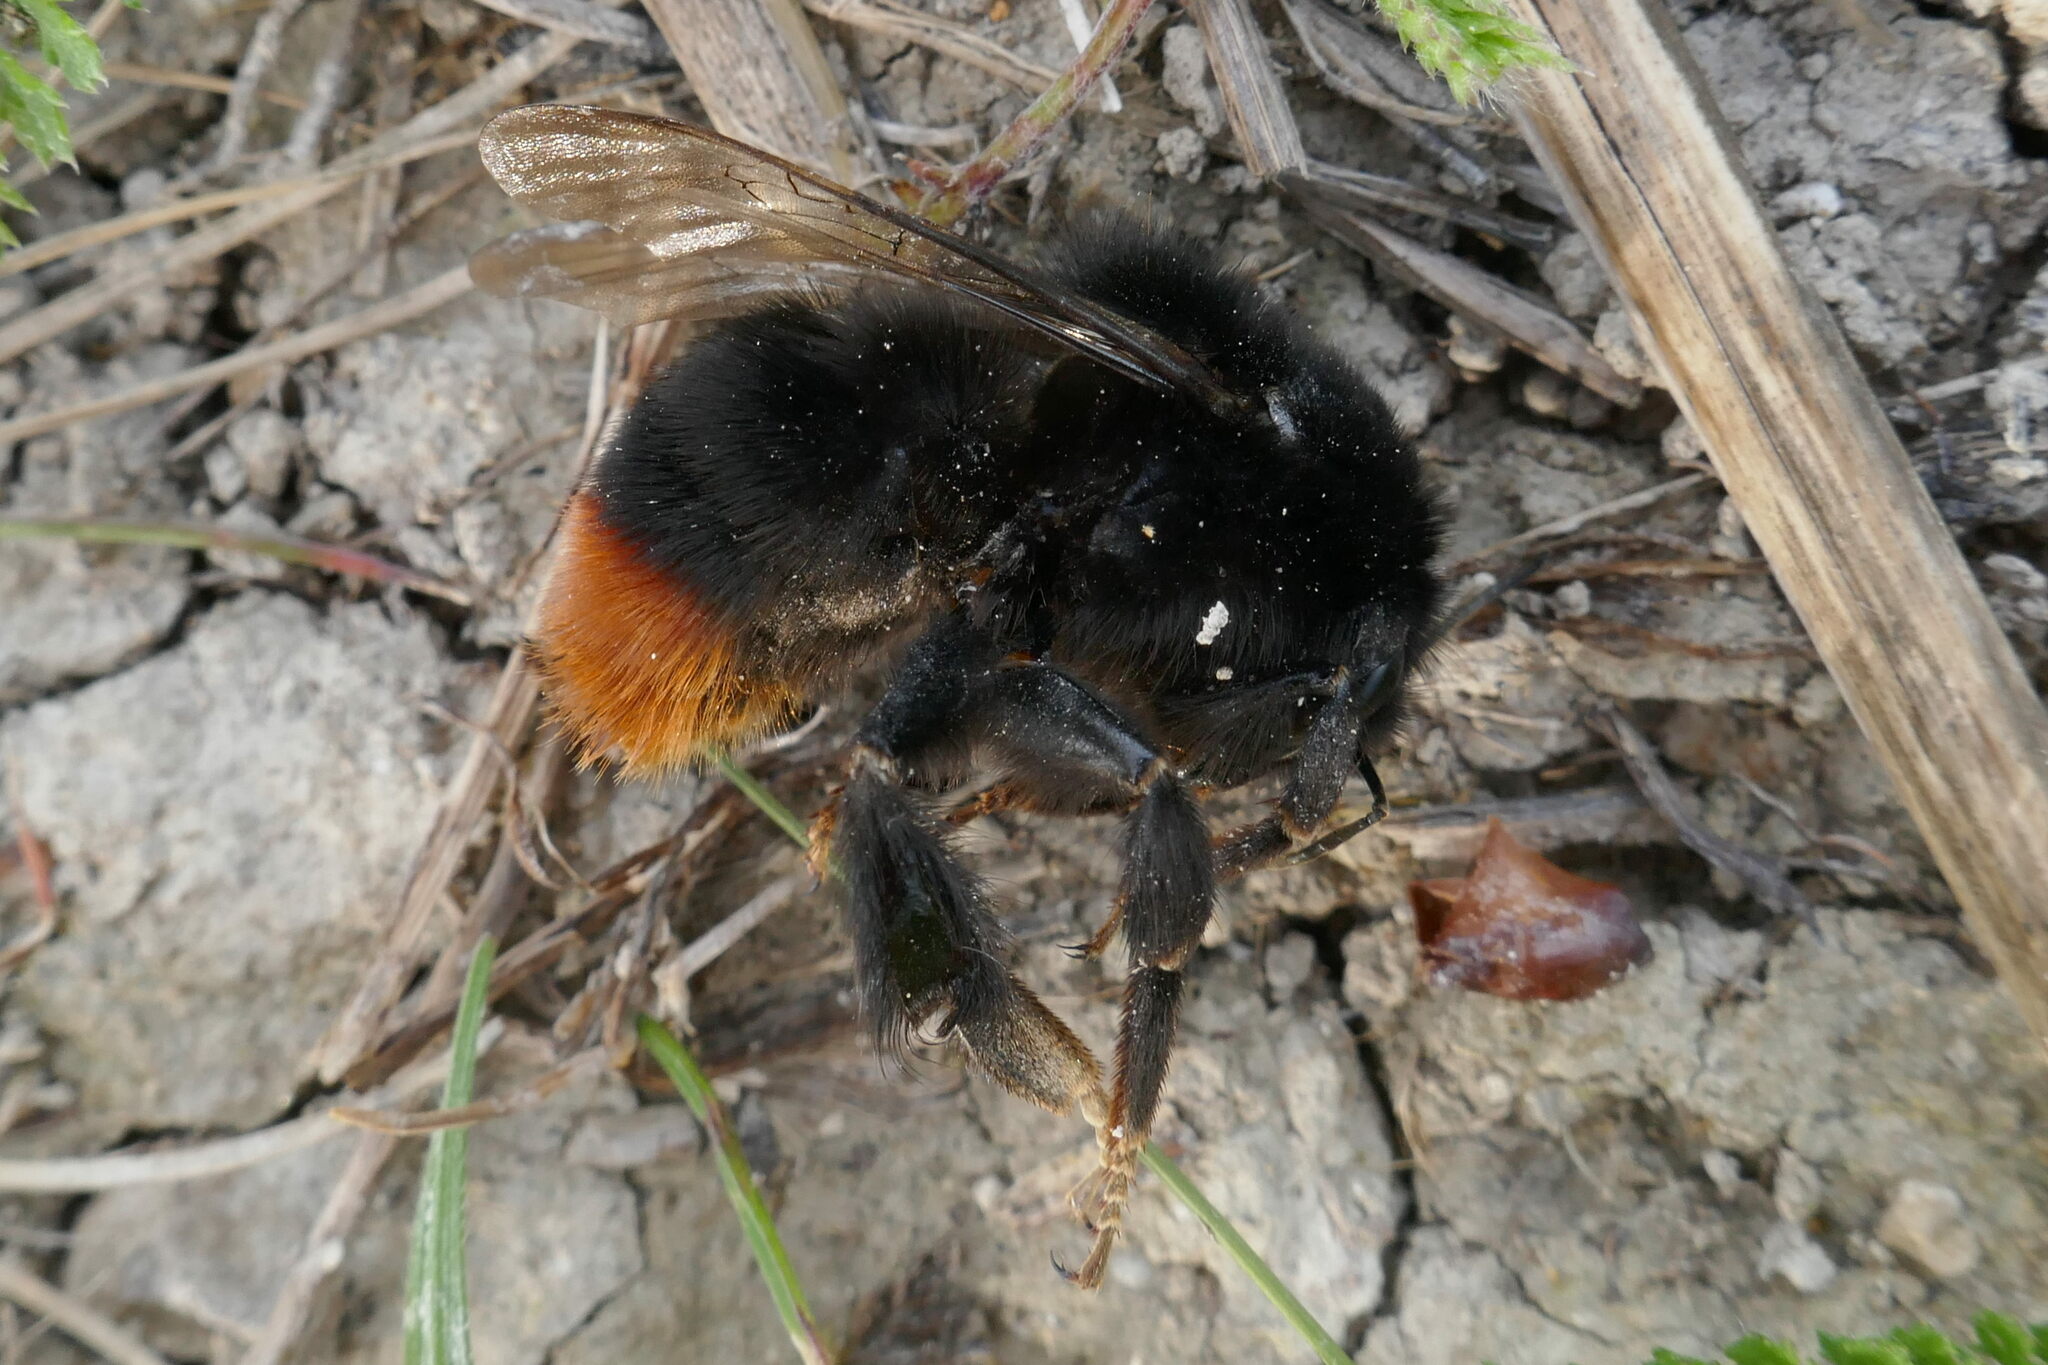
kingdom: Animalia
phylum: Arthropoda
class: Insecta
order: Hymenoptera
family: Apidae
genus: Bombus
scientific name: Bombus lapidarius
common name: Large red-tailed humble-bee
